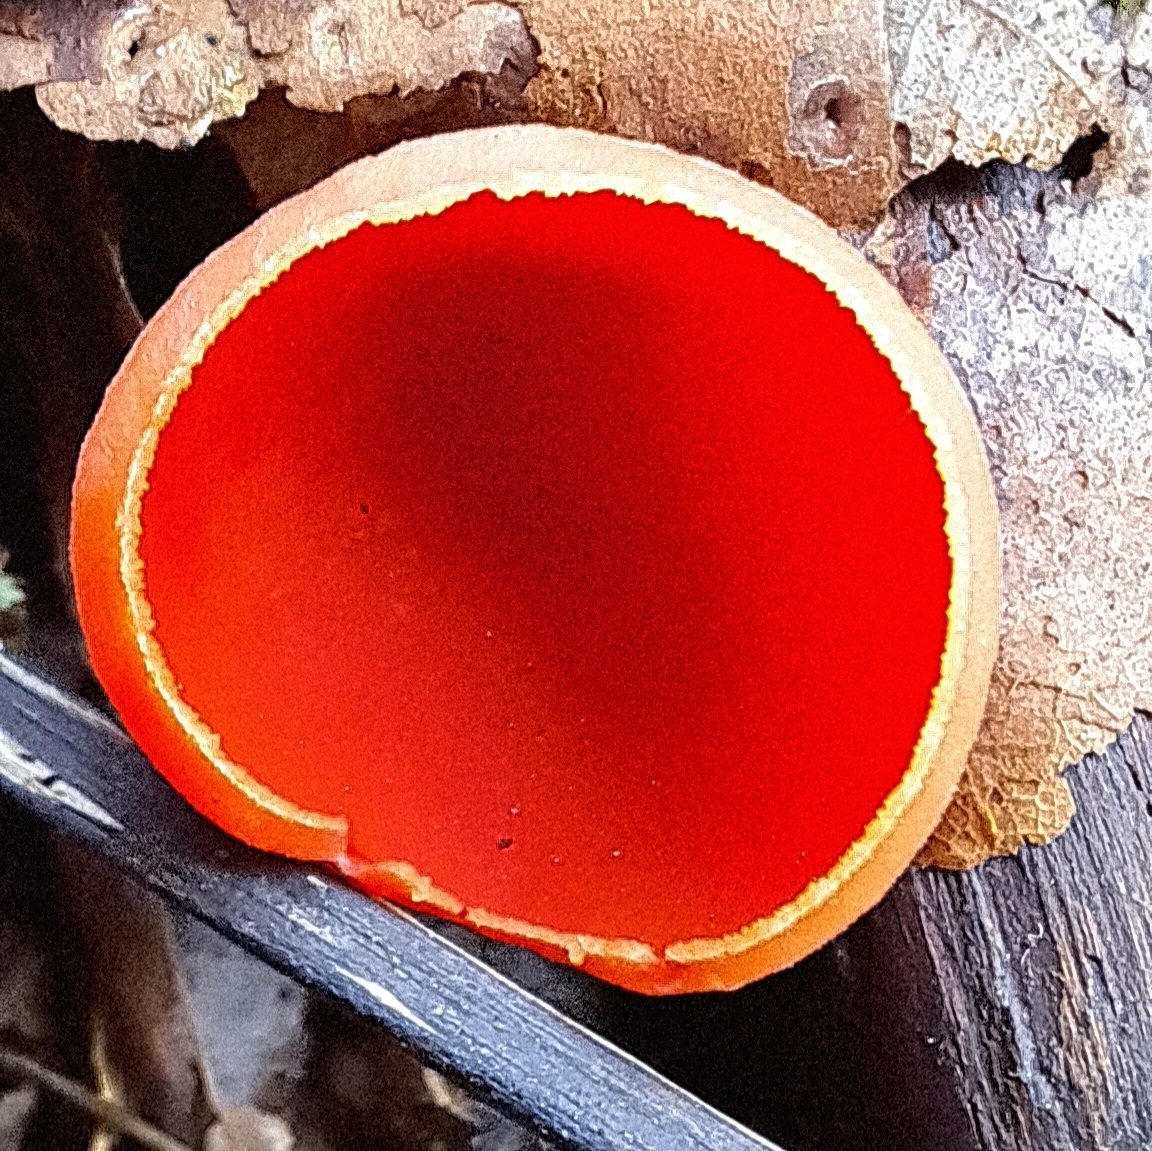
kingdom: Fungi
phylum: Ascomycota
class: Pezizomycetes
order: Pezizales
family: Sarcoscyphaceae
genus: Sarcoscypha
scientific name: Sarcoscypha
